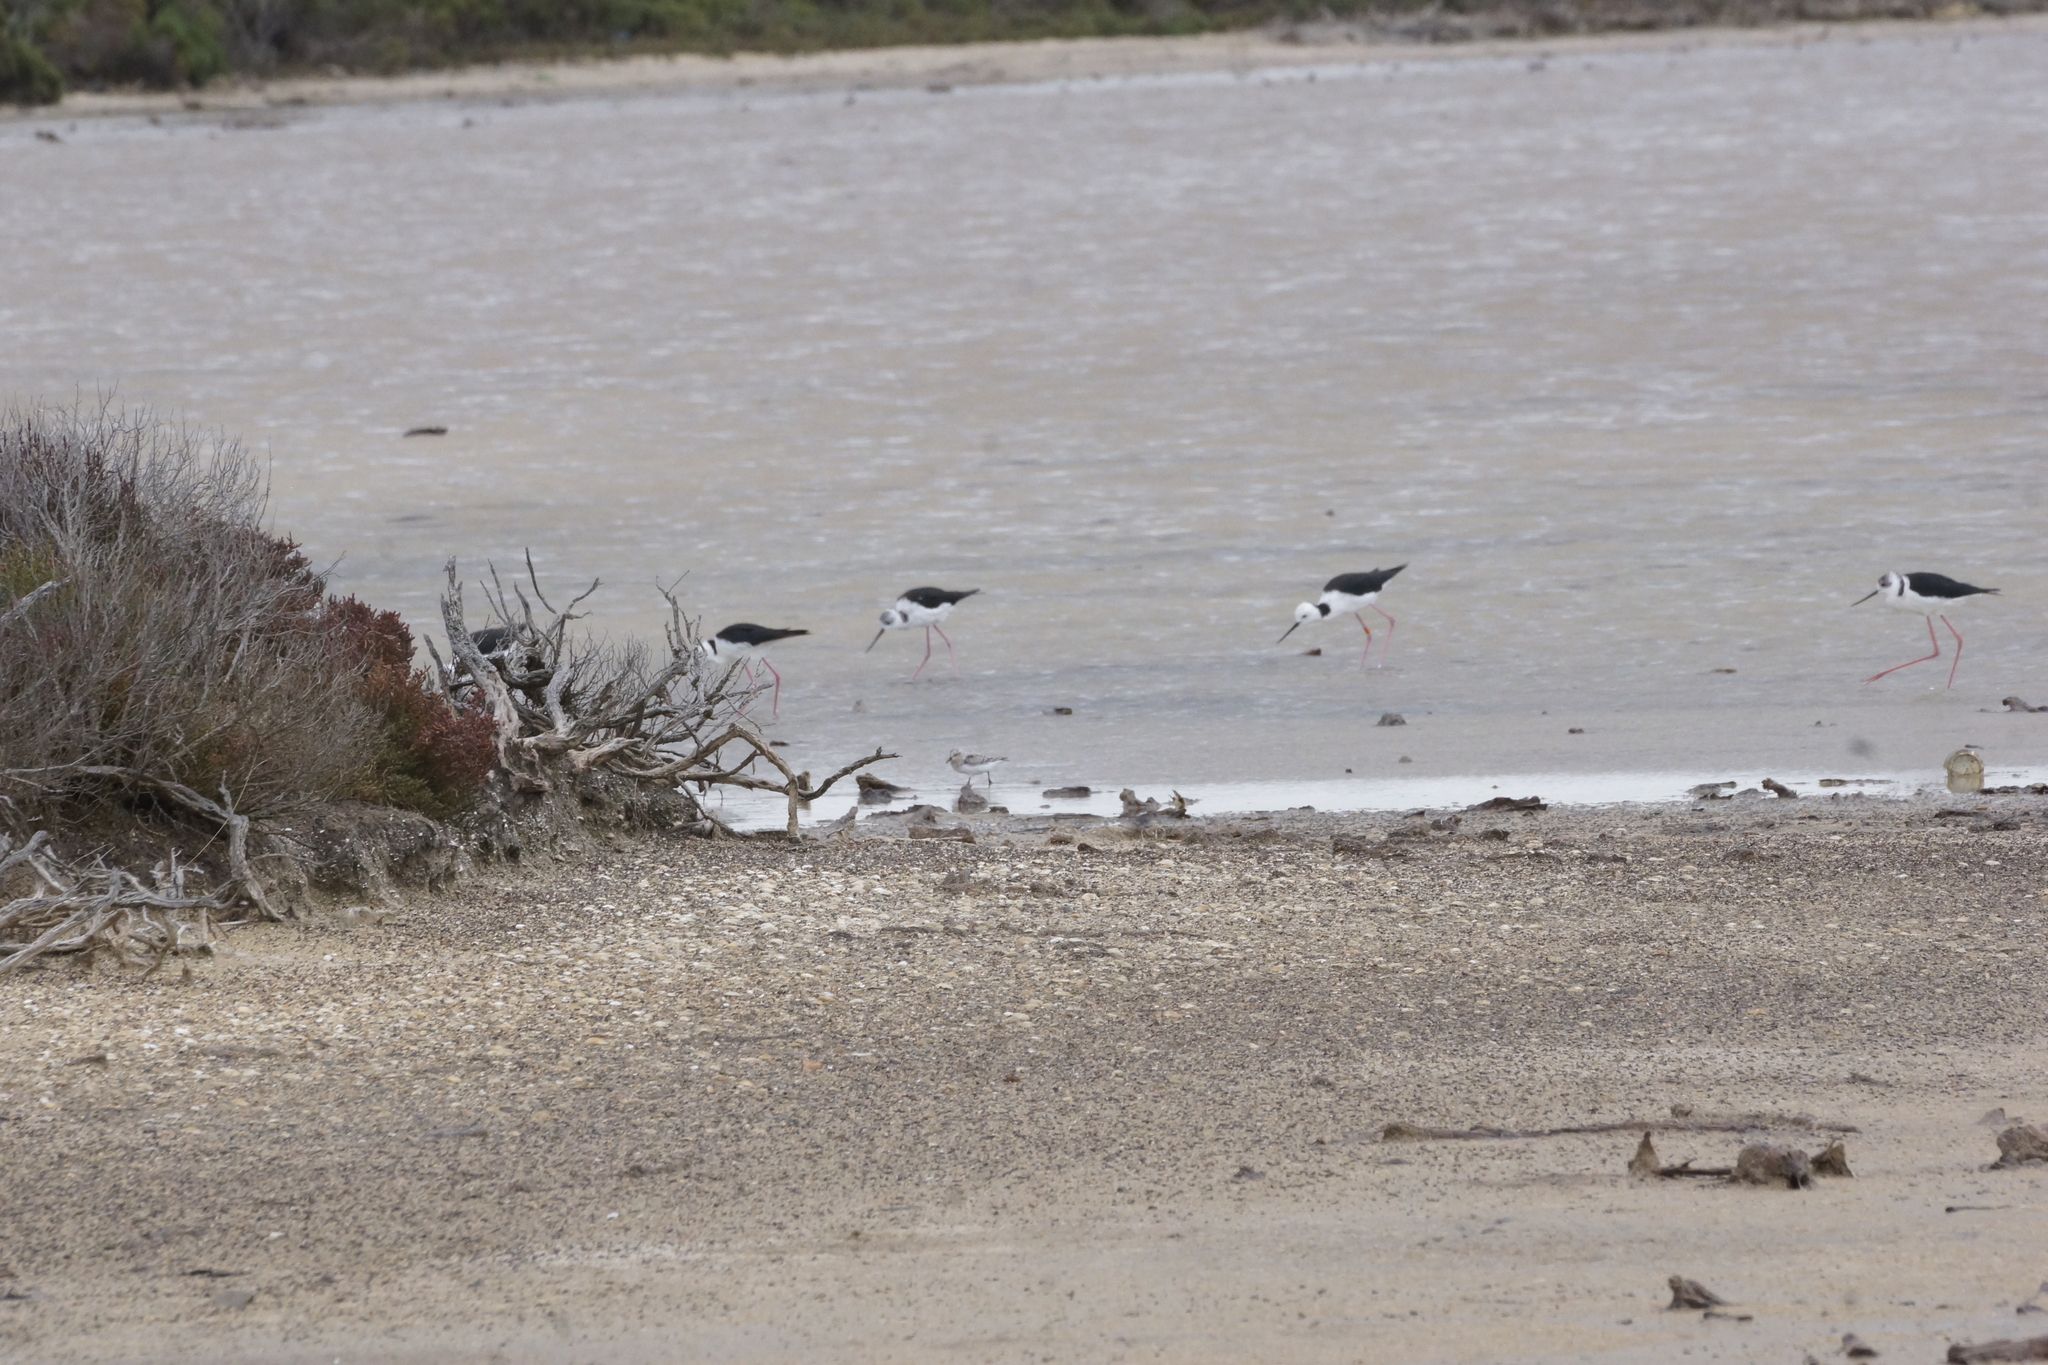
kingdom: Animalia
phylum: Chordata
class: Aves
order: Charadriiformes
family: Scolopacidae
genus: Calidris
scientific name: Calidris ruficollis
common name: Red-necked stint
